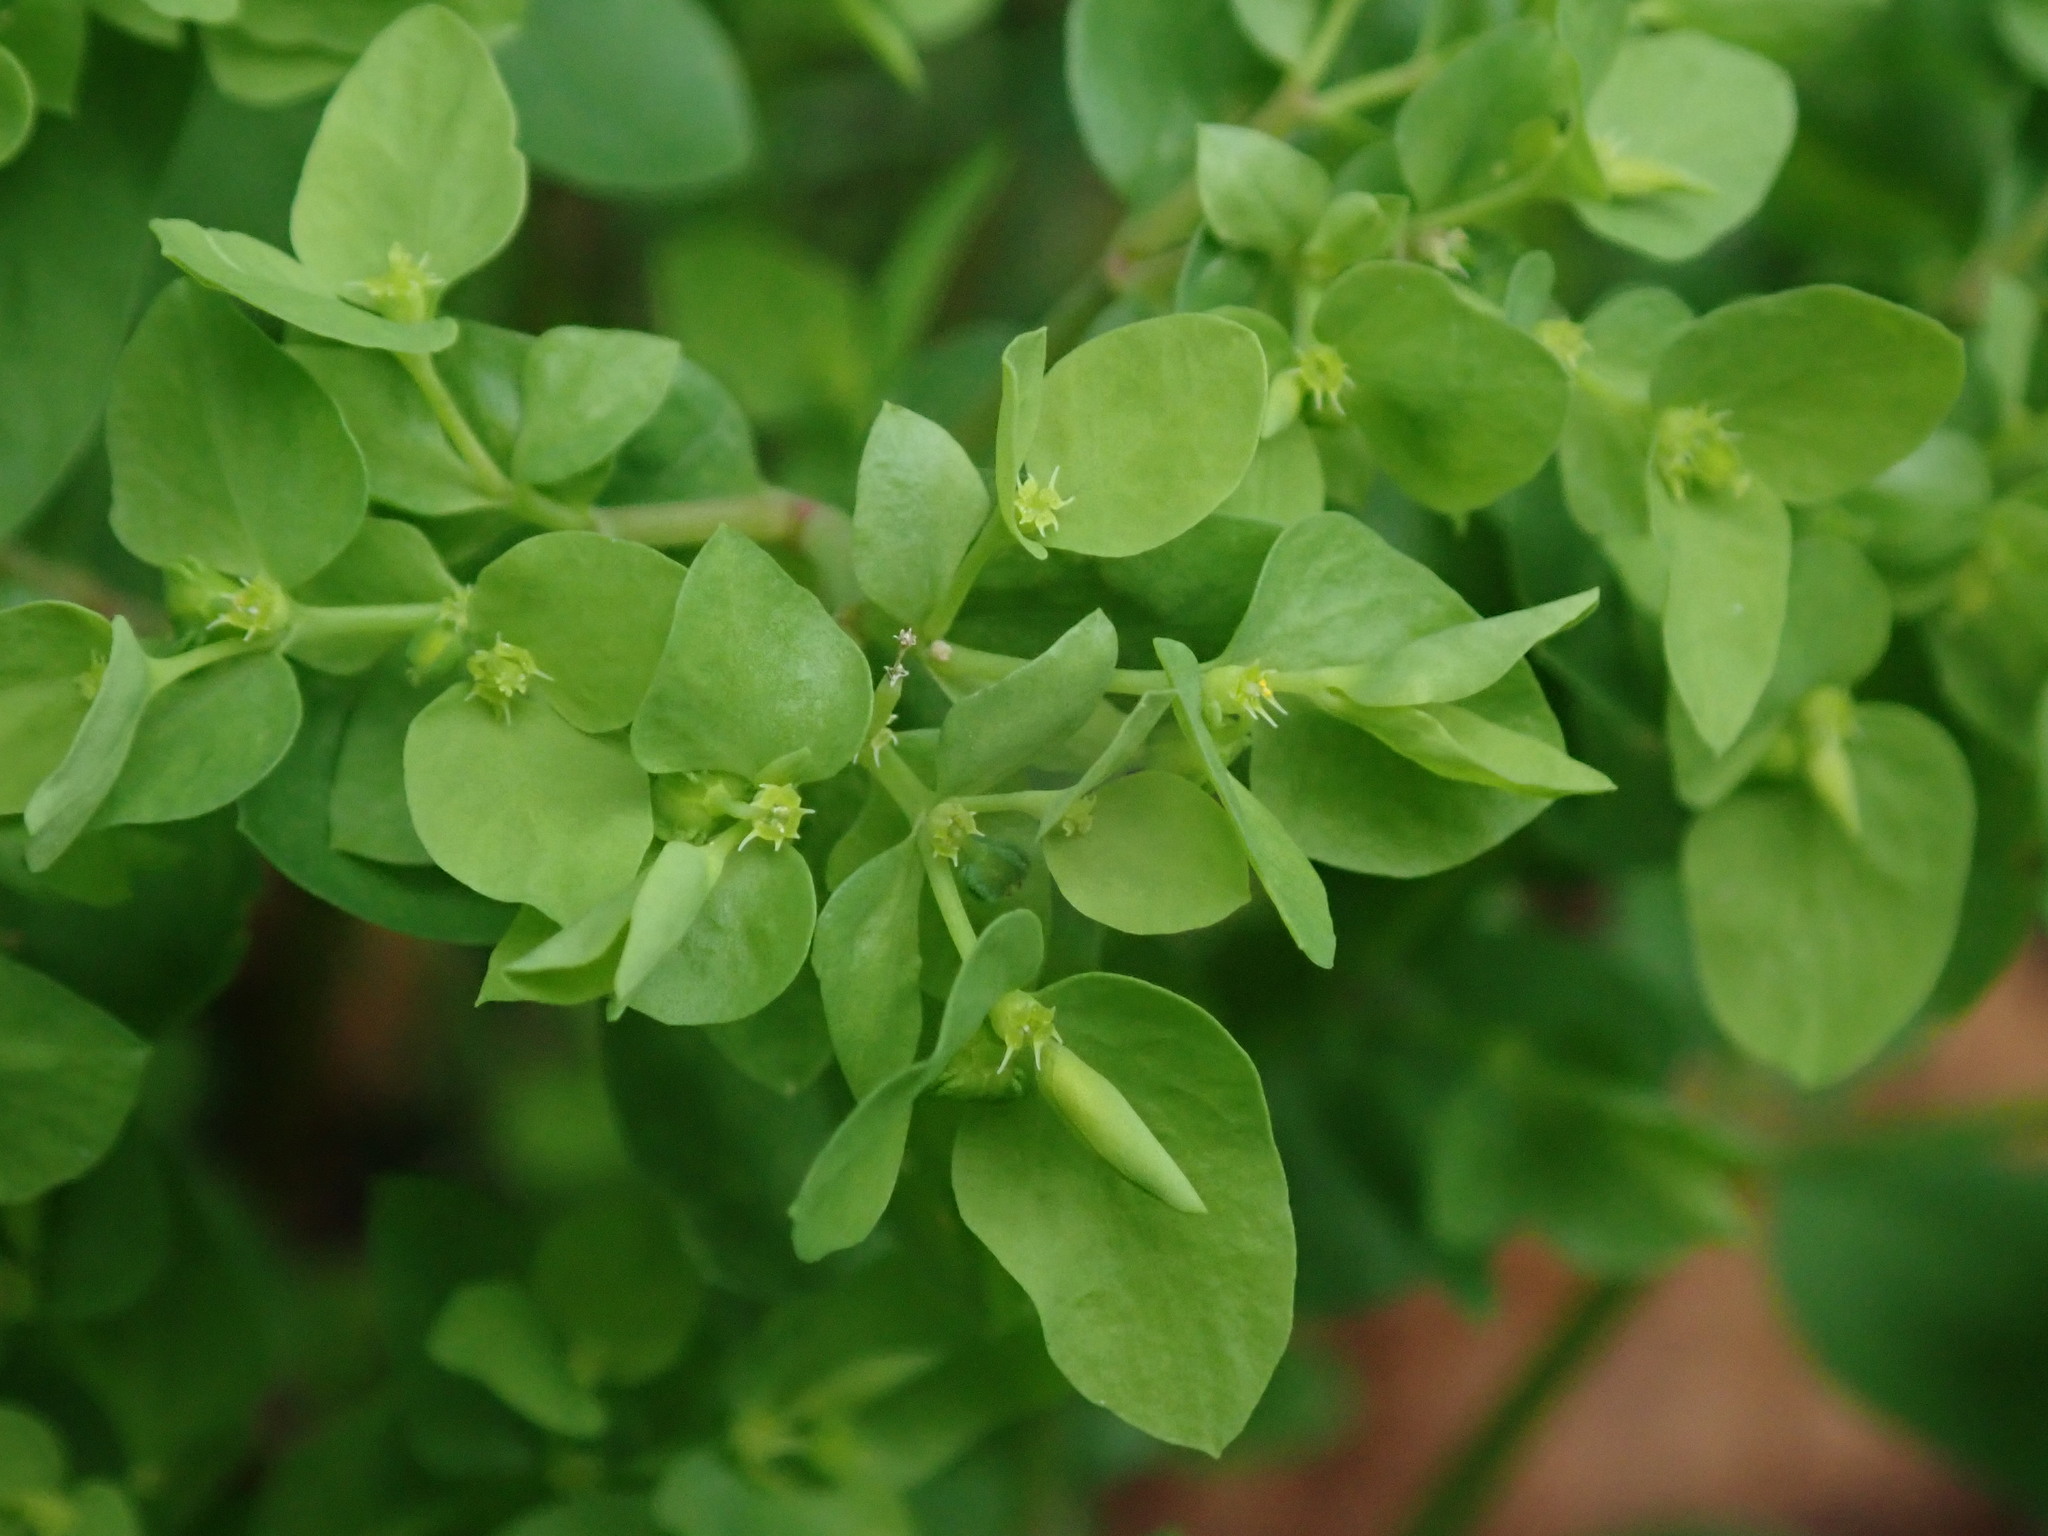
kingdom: Plantae
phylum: Tracheophyta
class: Magnoliopsida
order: Malpighiales
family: Euphorbiaceae
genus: Euphorbia
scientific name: Euphorbia peplus
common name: Petty spurge
